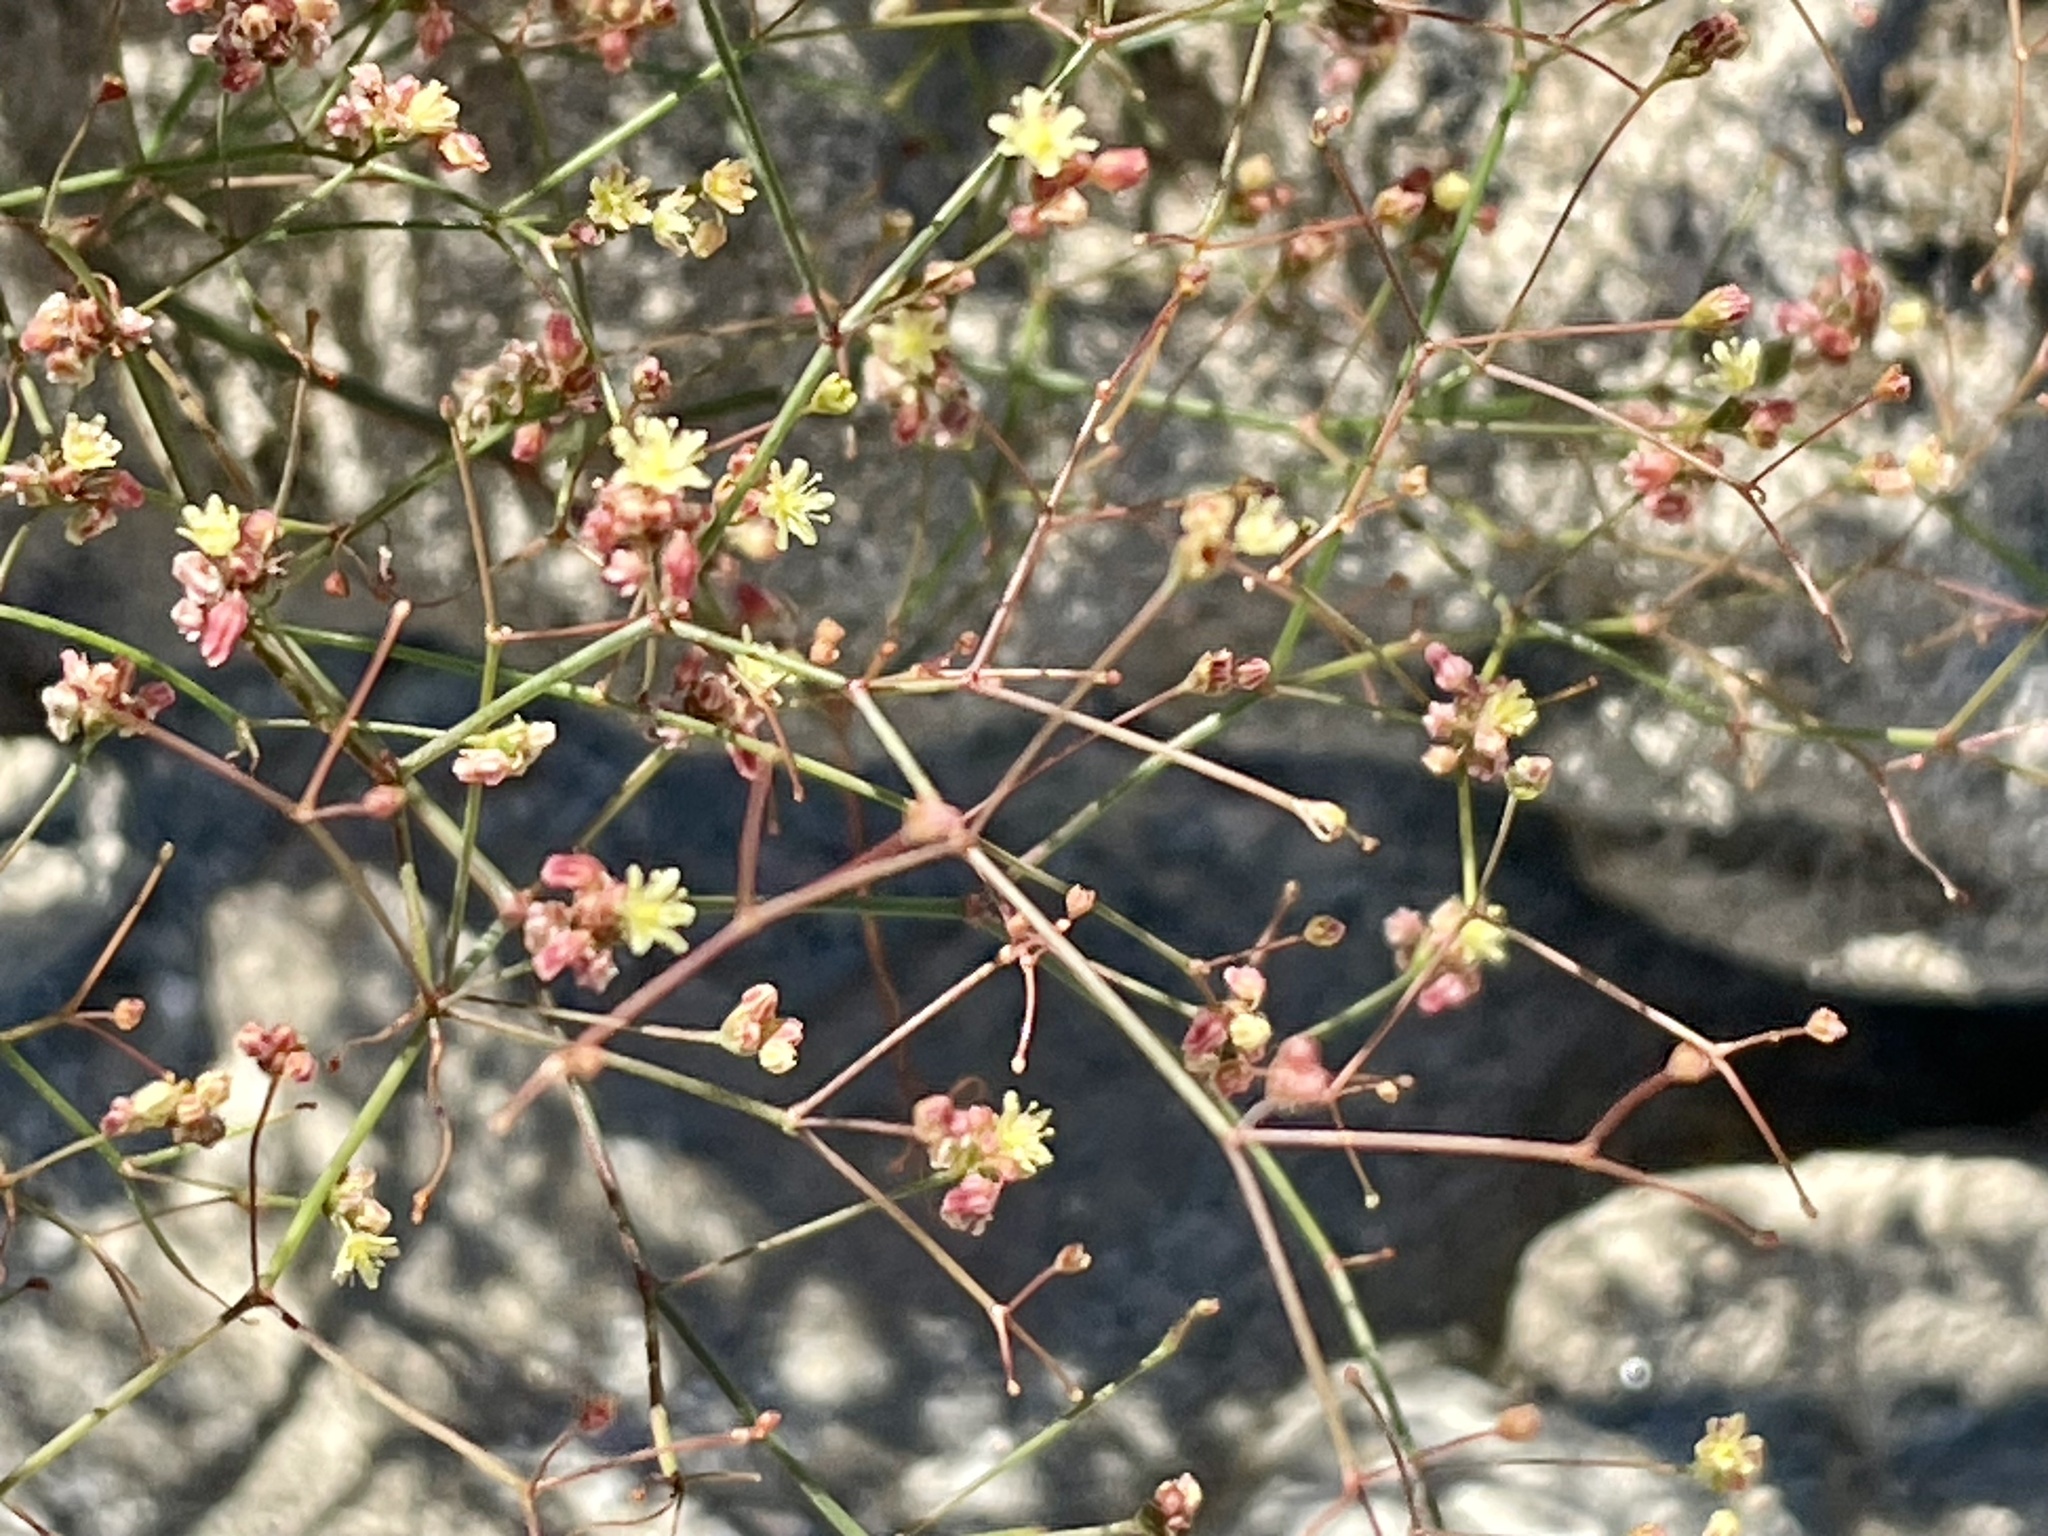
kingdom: Plantae
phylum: Tracheophyta
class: Magnoliopsida
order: Caryophyllales
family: Polygonaceae
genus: Eriogonum
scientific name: Eriogonum thomasii
